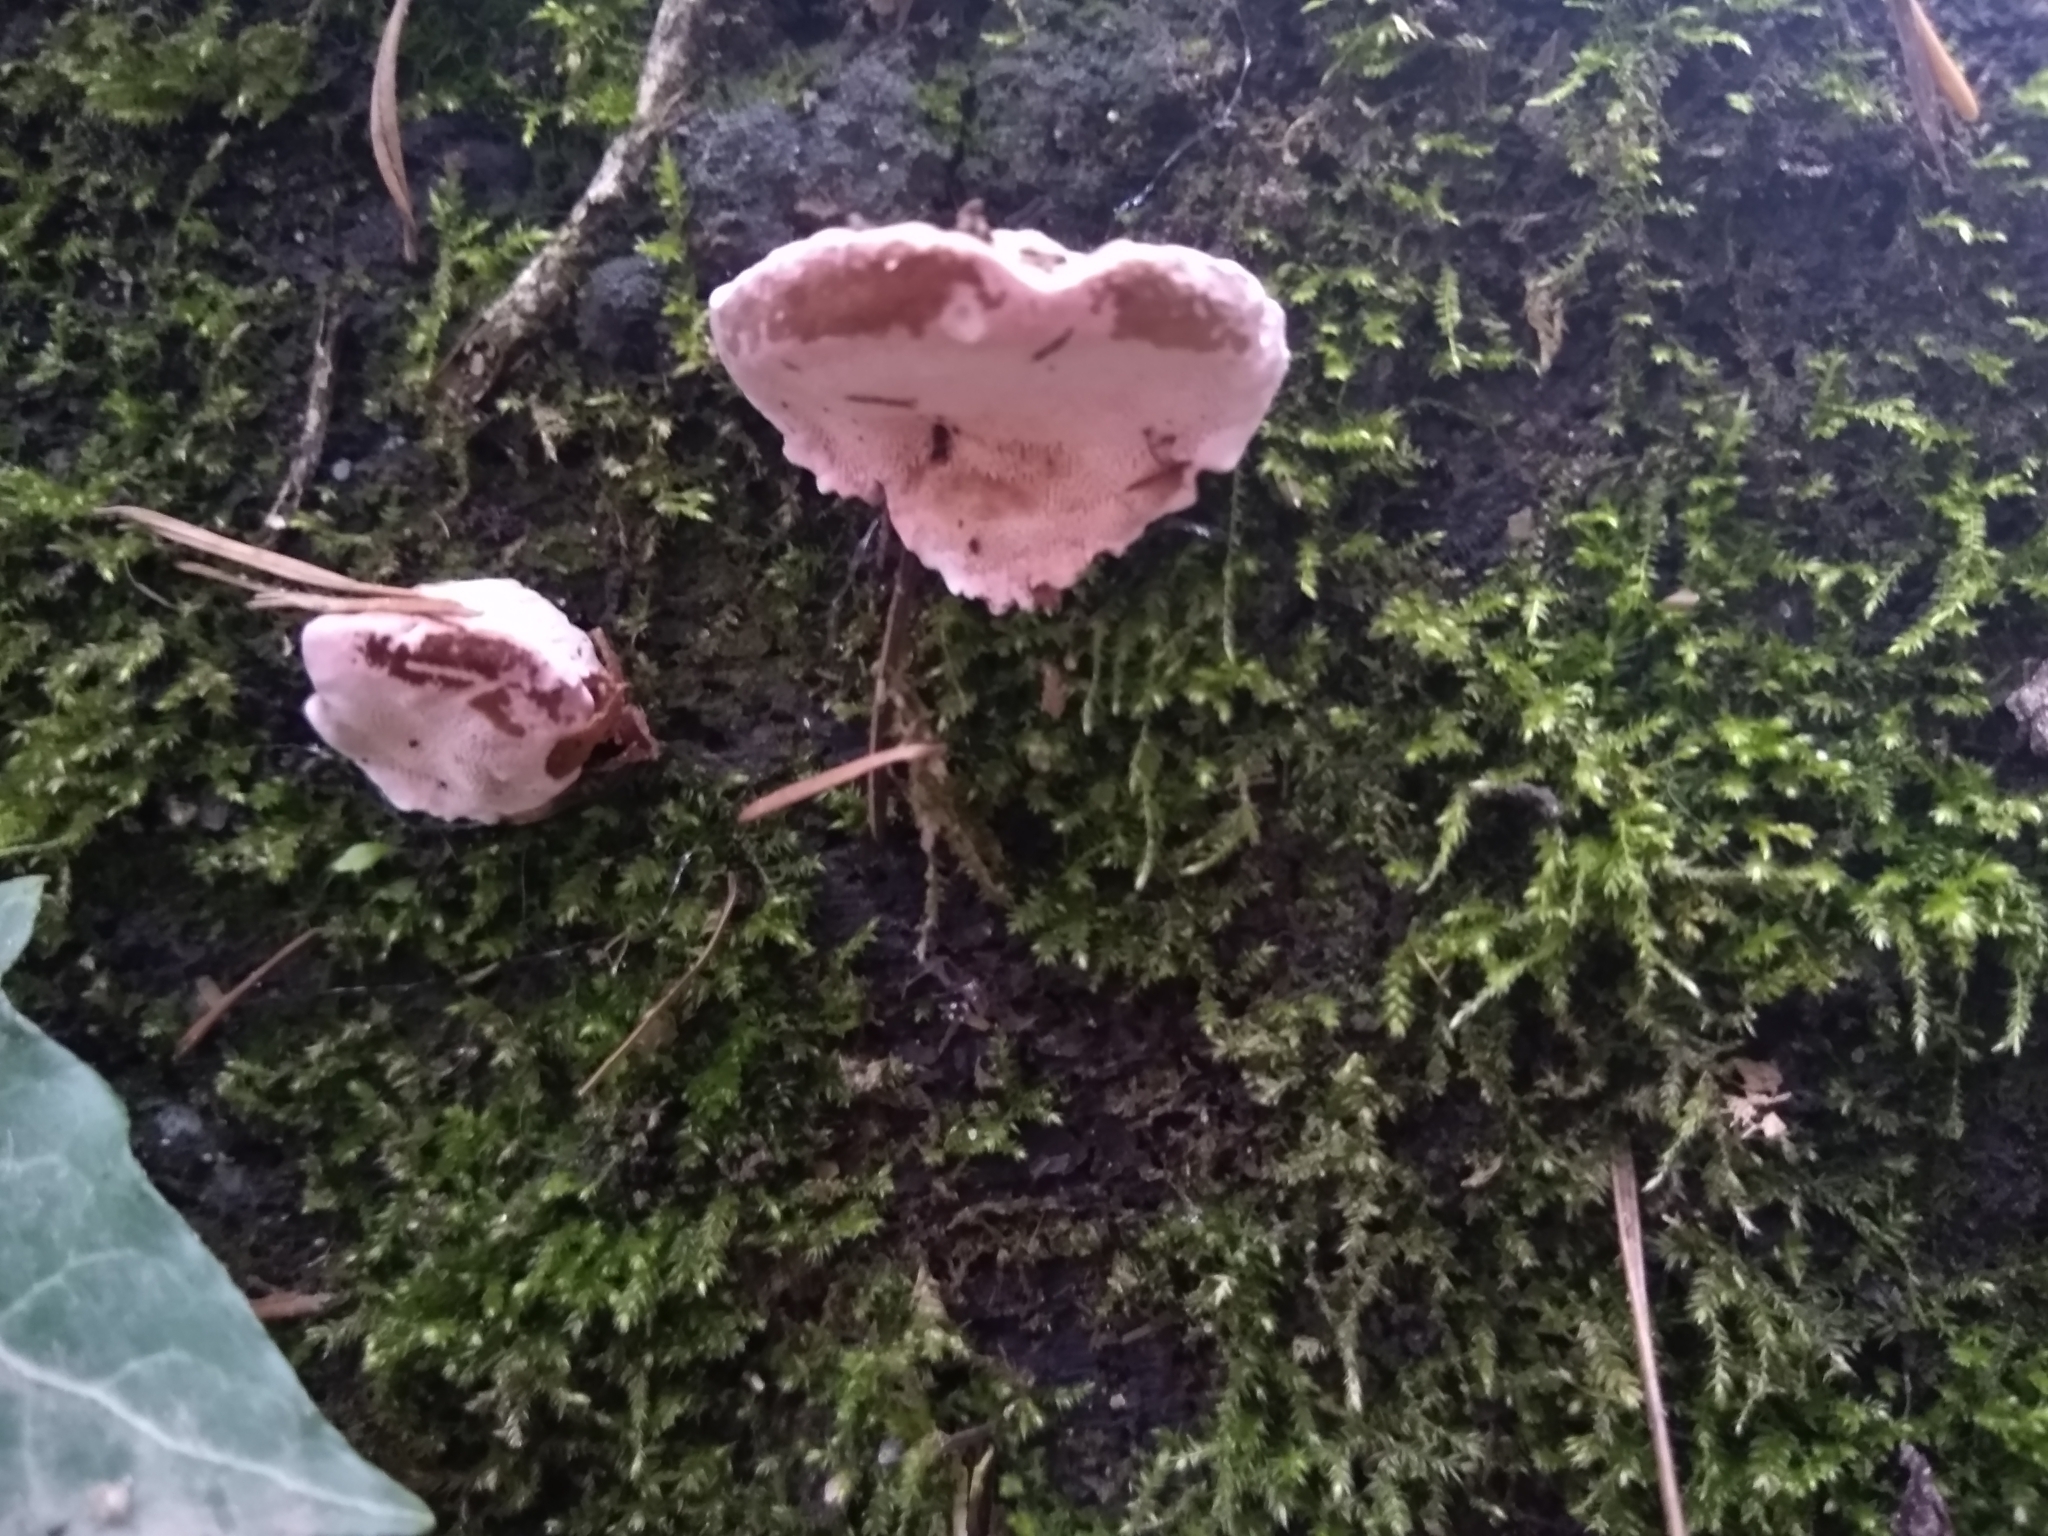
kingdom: Fungi
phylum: Basidiomycota
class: Agaricomycetes
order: Polyporales
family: Fomitopsidaceae
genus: Rhodofomes
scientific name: Rhodofomes cajanderi
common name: Rosy conk
